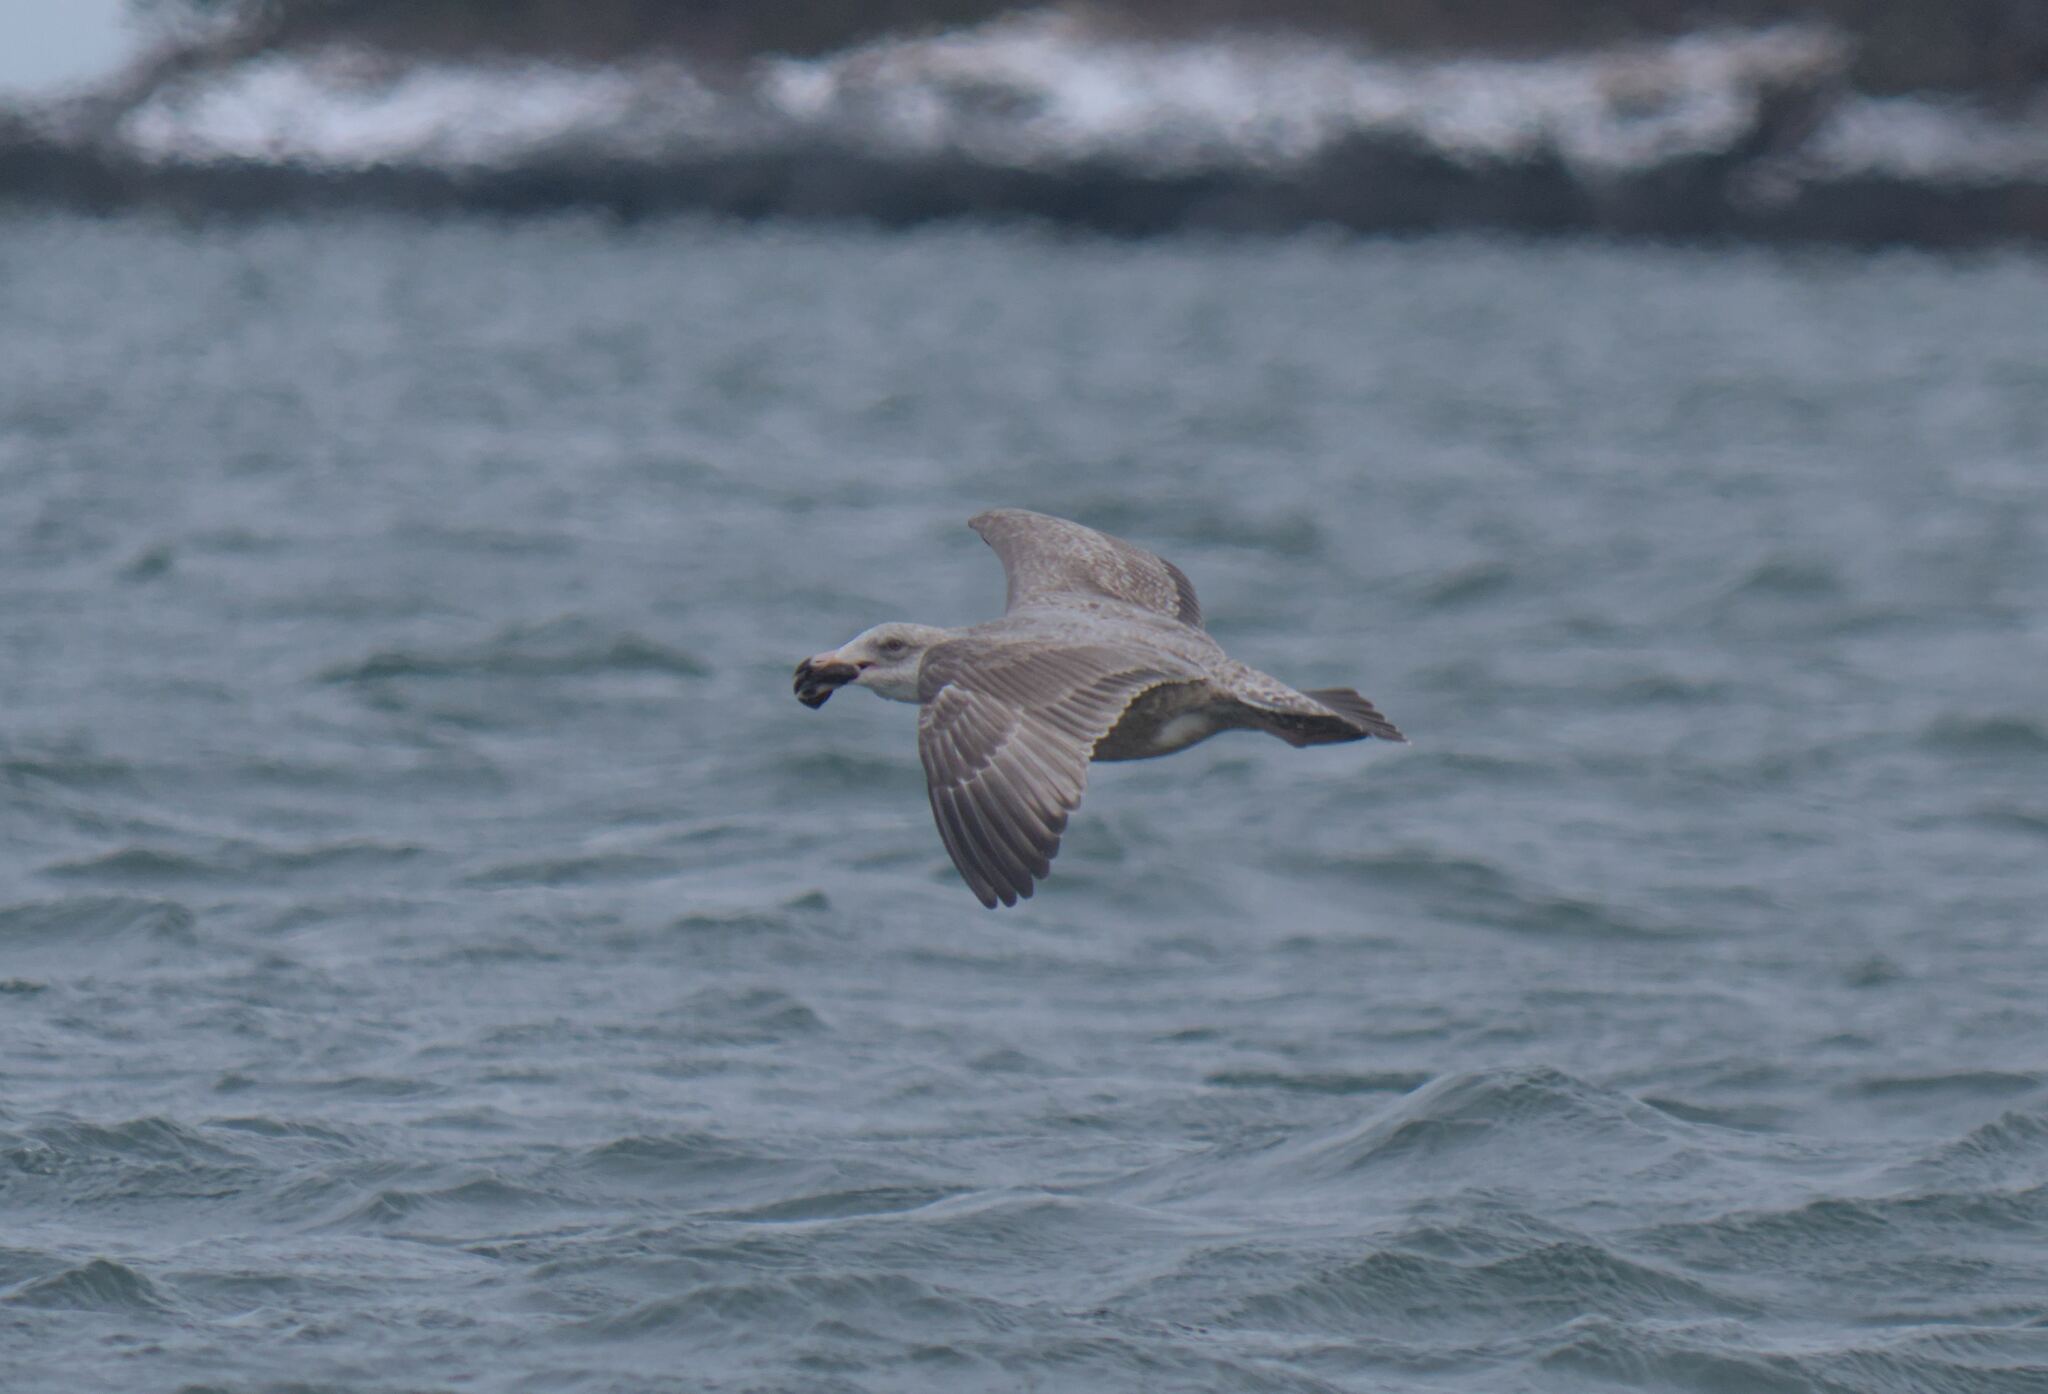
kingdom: Animalia
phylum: Chordata
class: Aves
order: Charadriiformes
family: Laridae
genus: Larus
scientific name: Larus argentatus
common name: Herring gull
